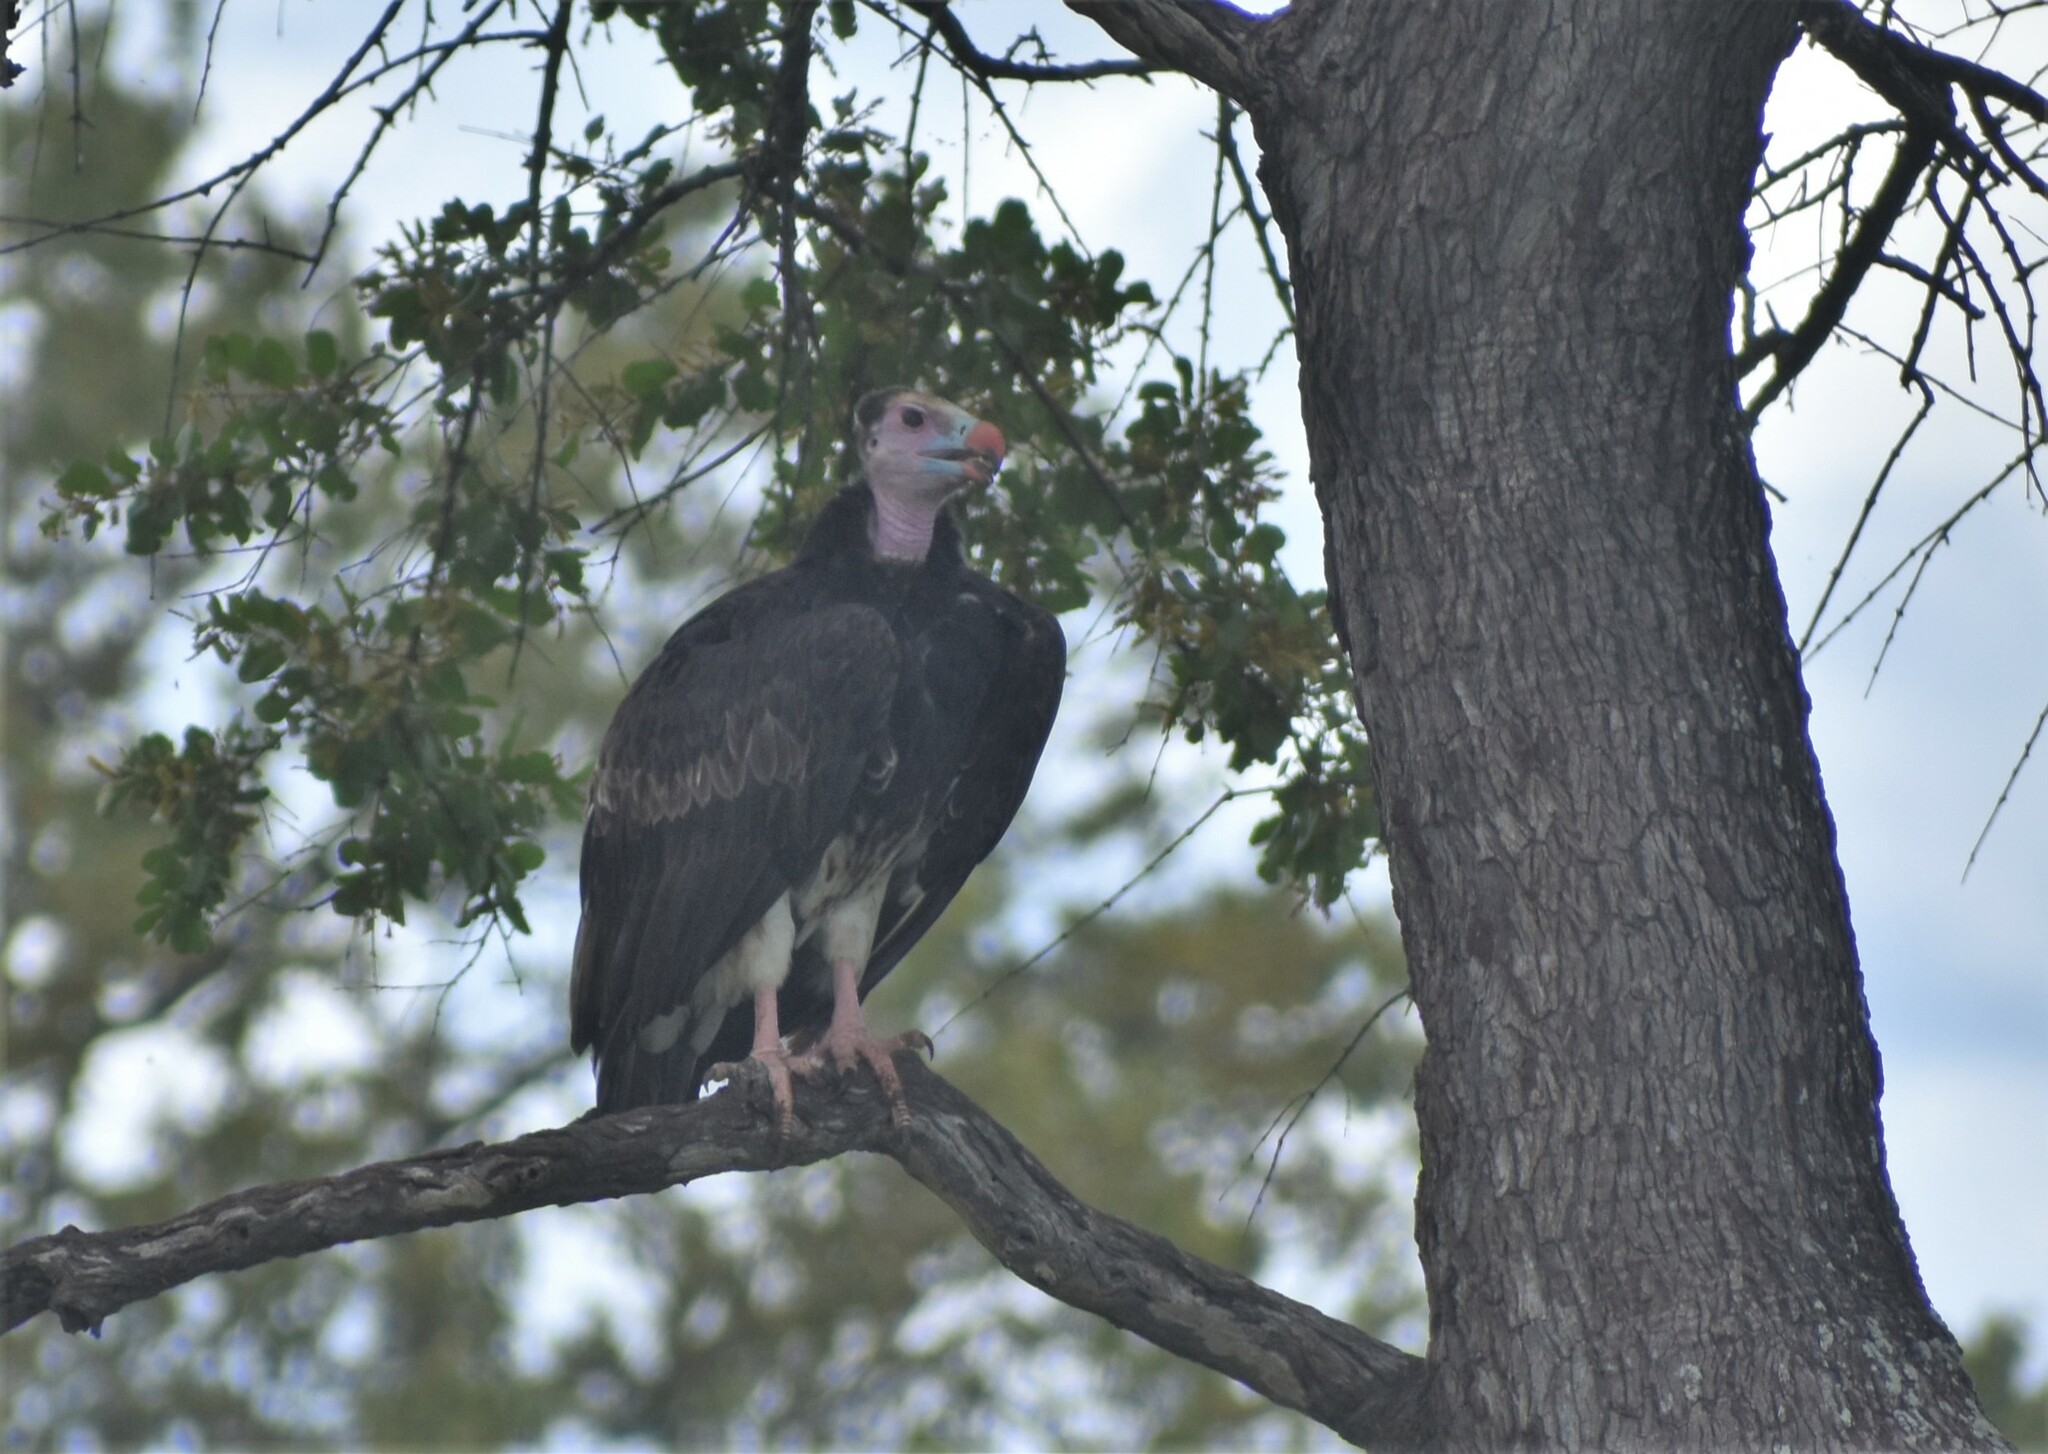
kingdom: Animalia
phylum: Chordata
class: Aves
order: Accipitriformes
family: Accipitridae
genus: Trigonoceps
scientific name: Trigonoceps occipitalis
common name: White-headed vulture
